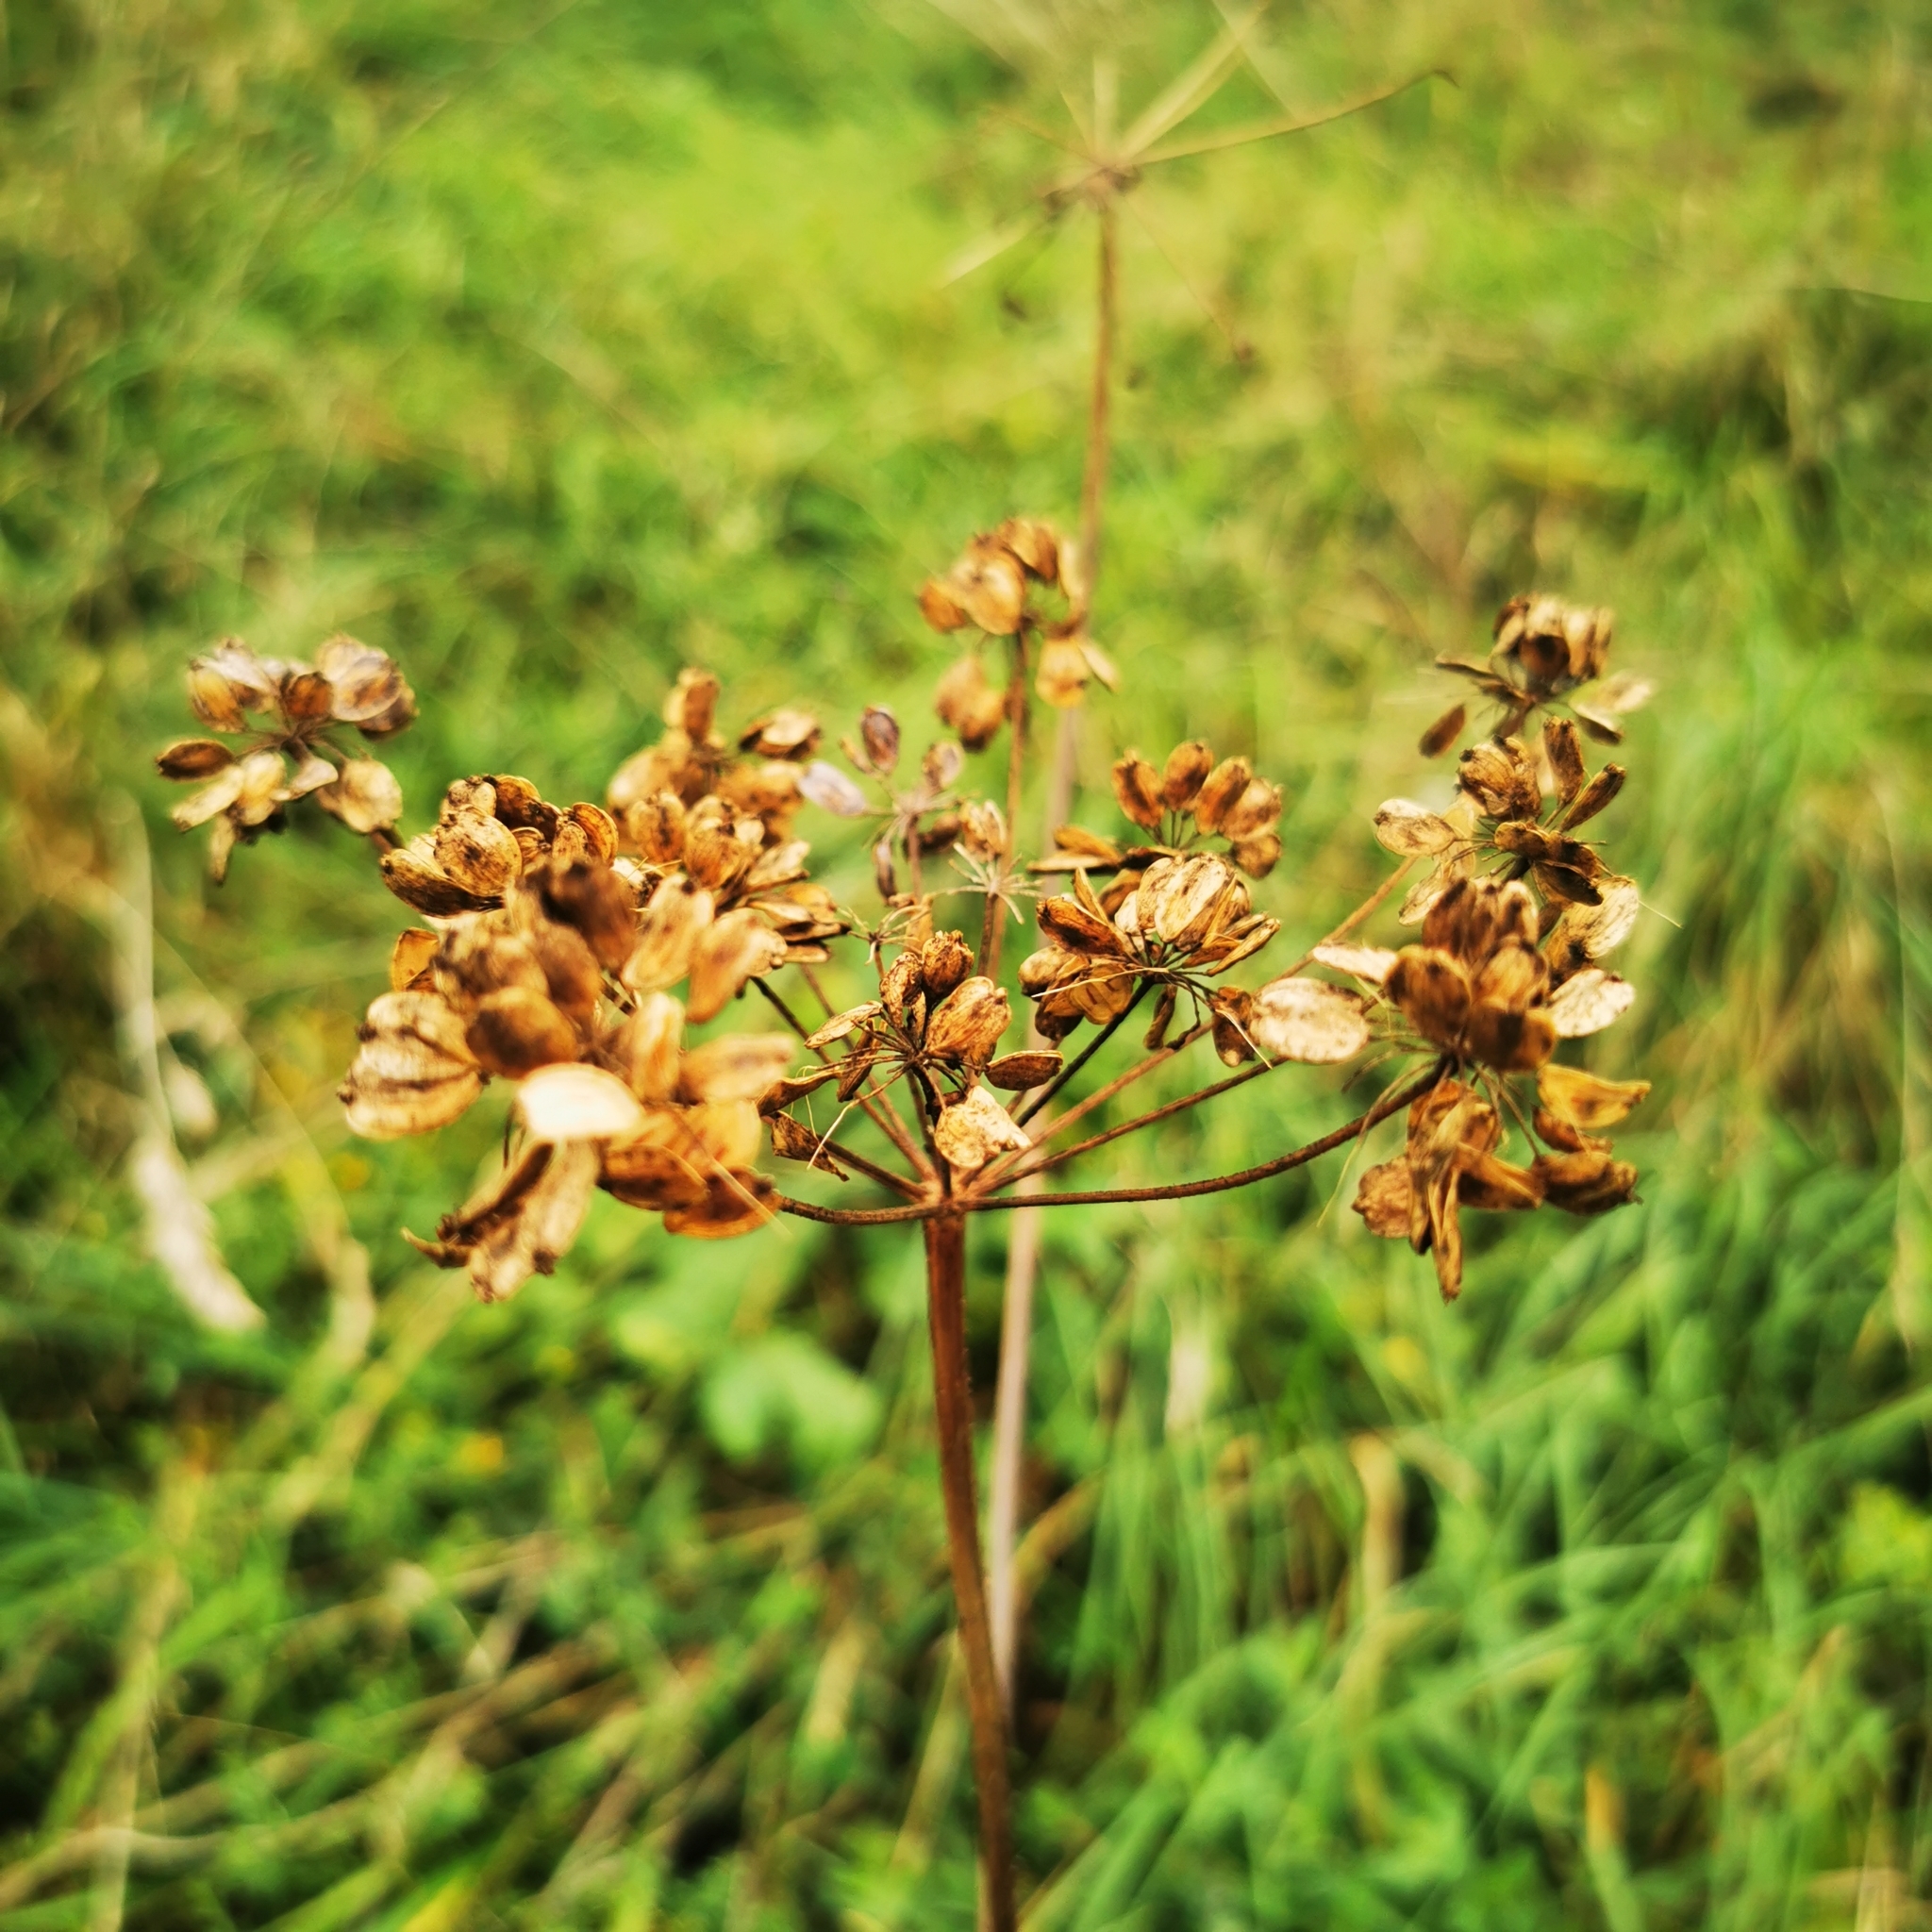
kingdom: Plantae
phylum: Tracheophyta
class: Magnoliopsida
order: Apiales
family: Apiaceae
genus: Heracleum
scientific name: Heracleum sphondylium
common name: Hogweed
